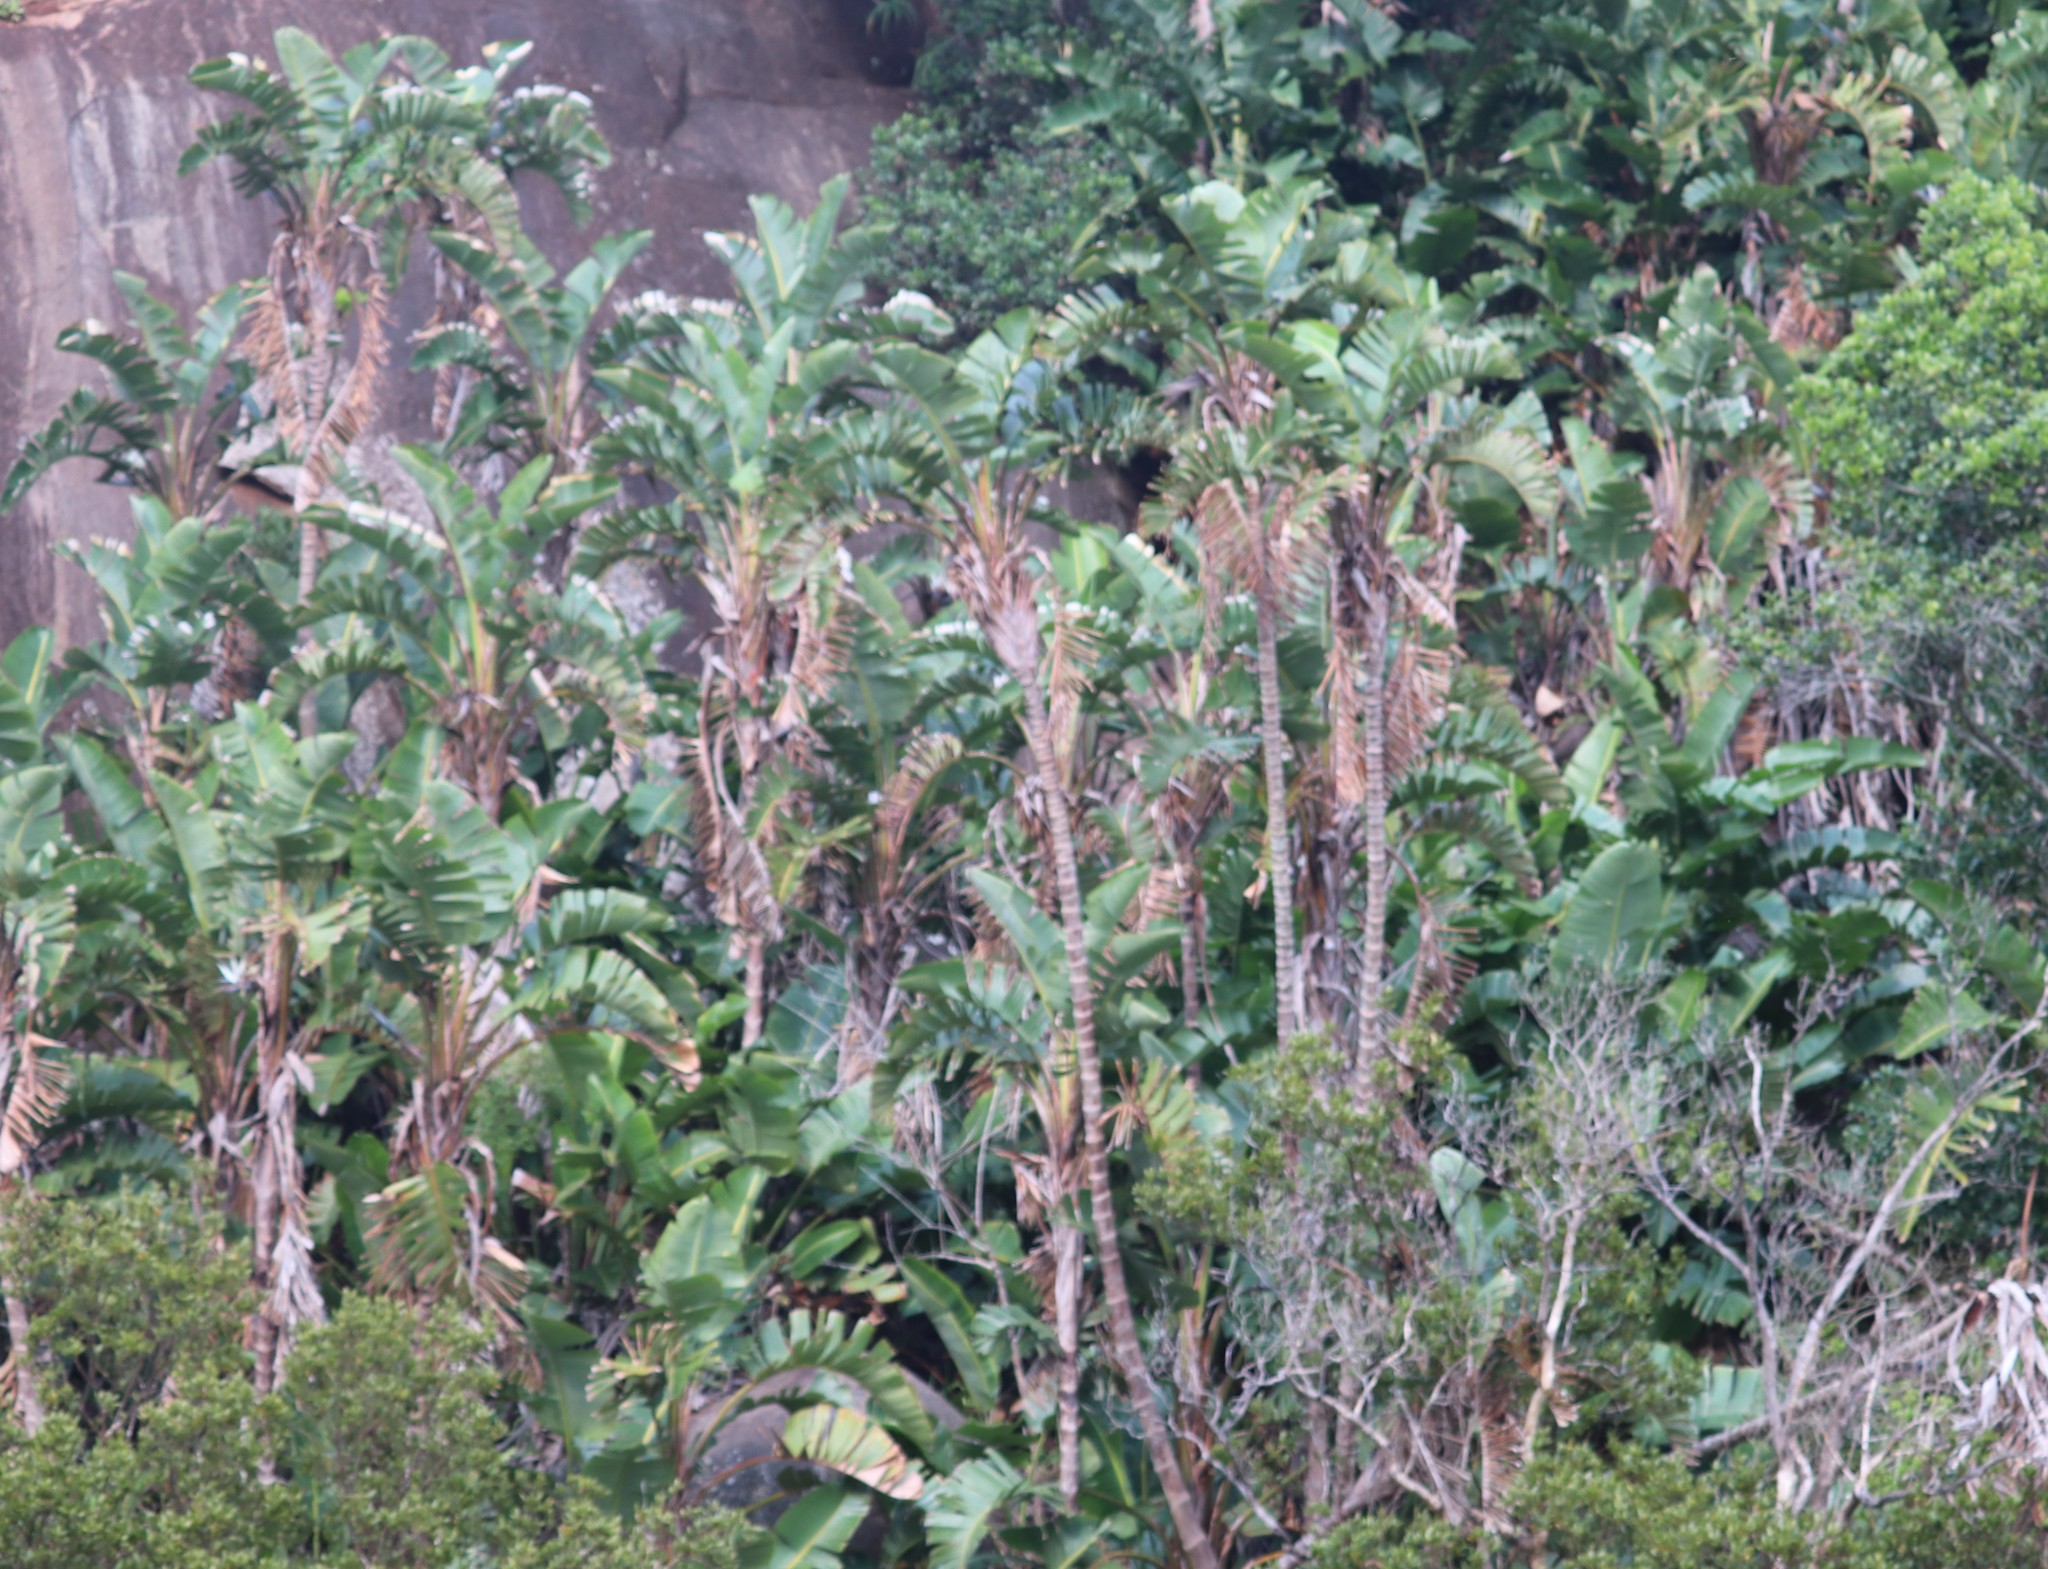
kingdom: Plantae
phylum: Tracheophyta
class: Liliopsida
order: Zingiberales
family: Strelitziaceae
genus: Strelitzia
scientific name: Strelitzia nicolai
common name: Bird-of-paradise tree
